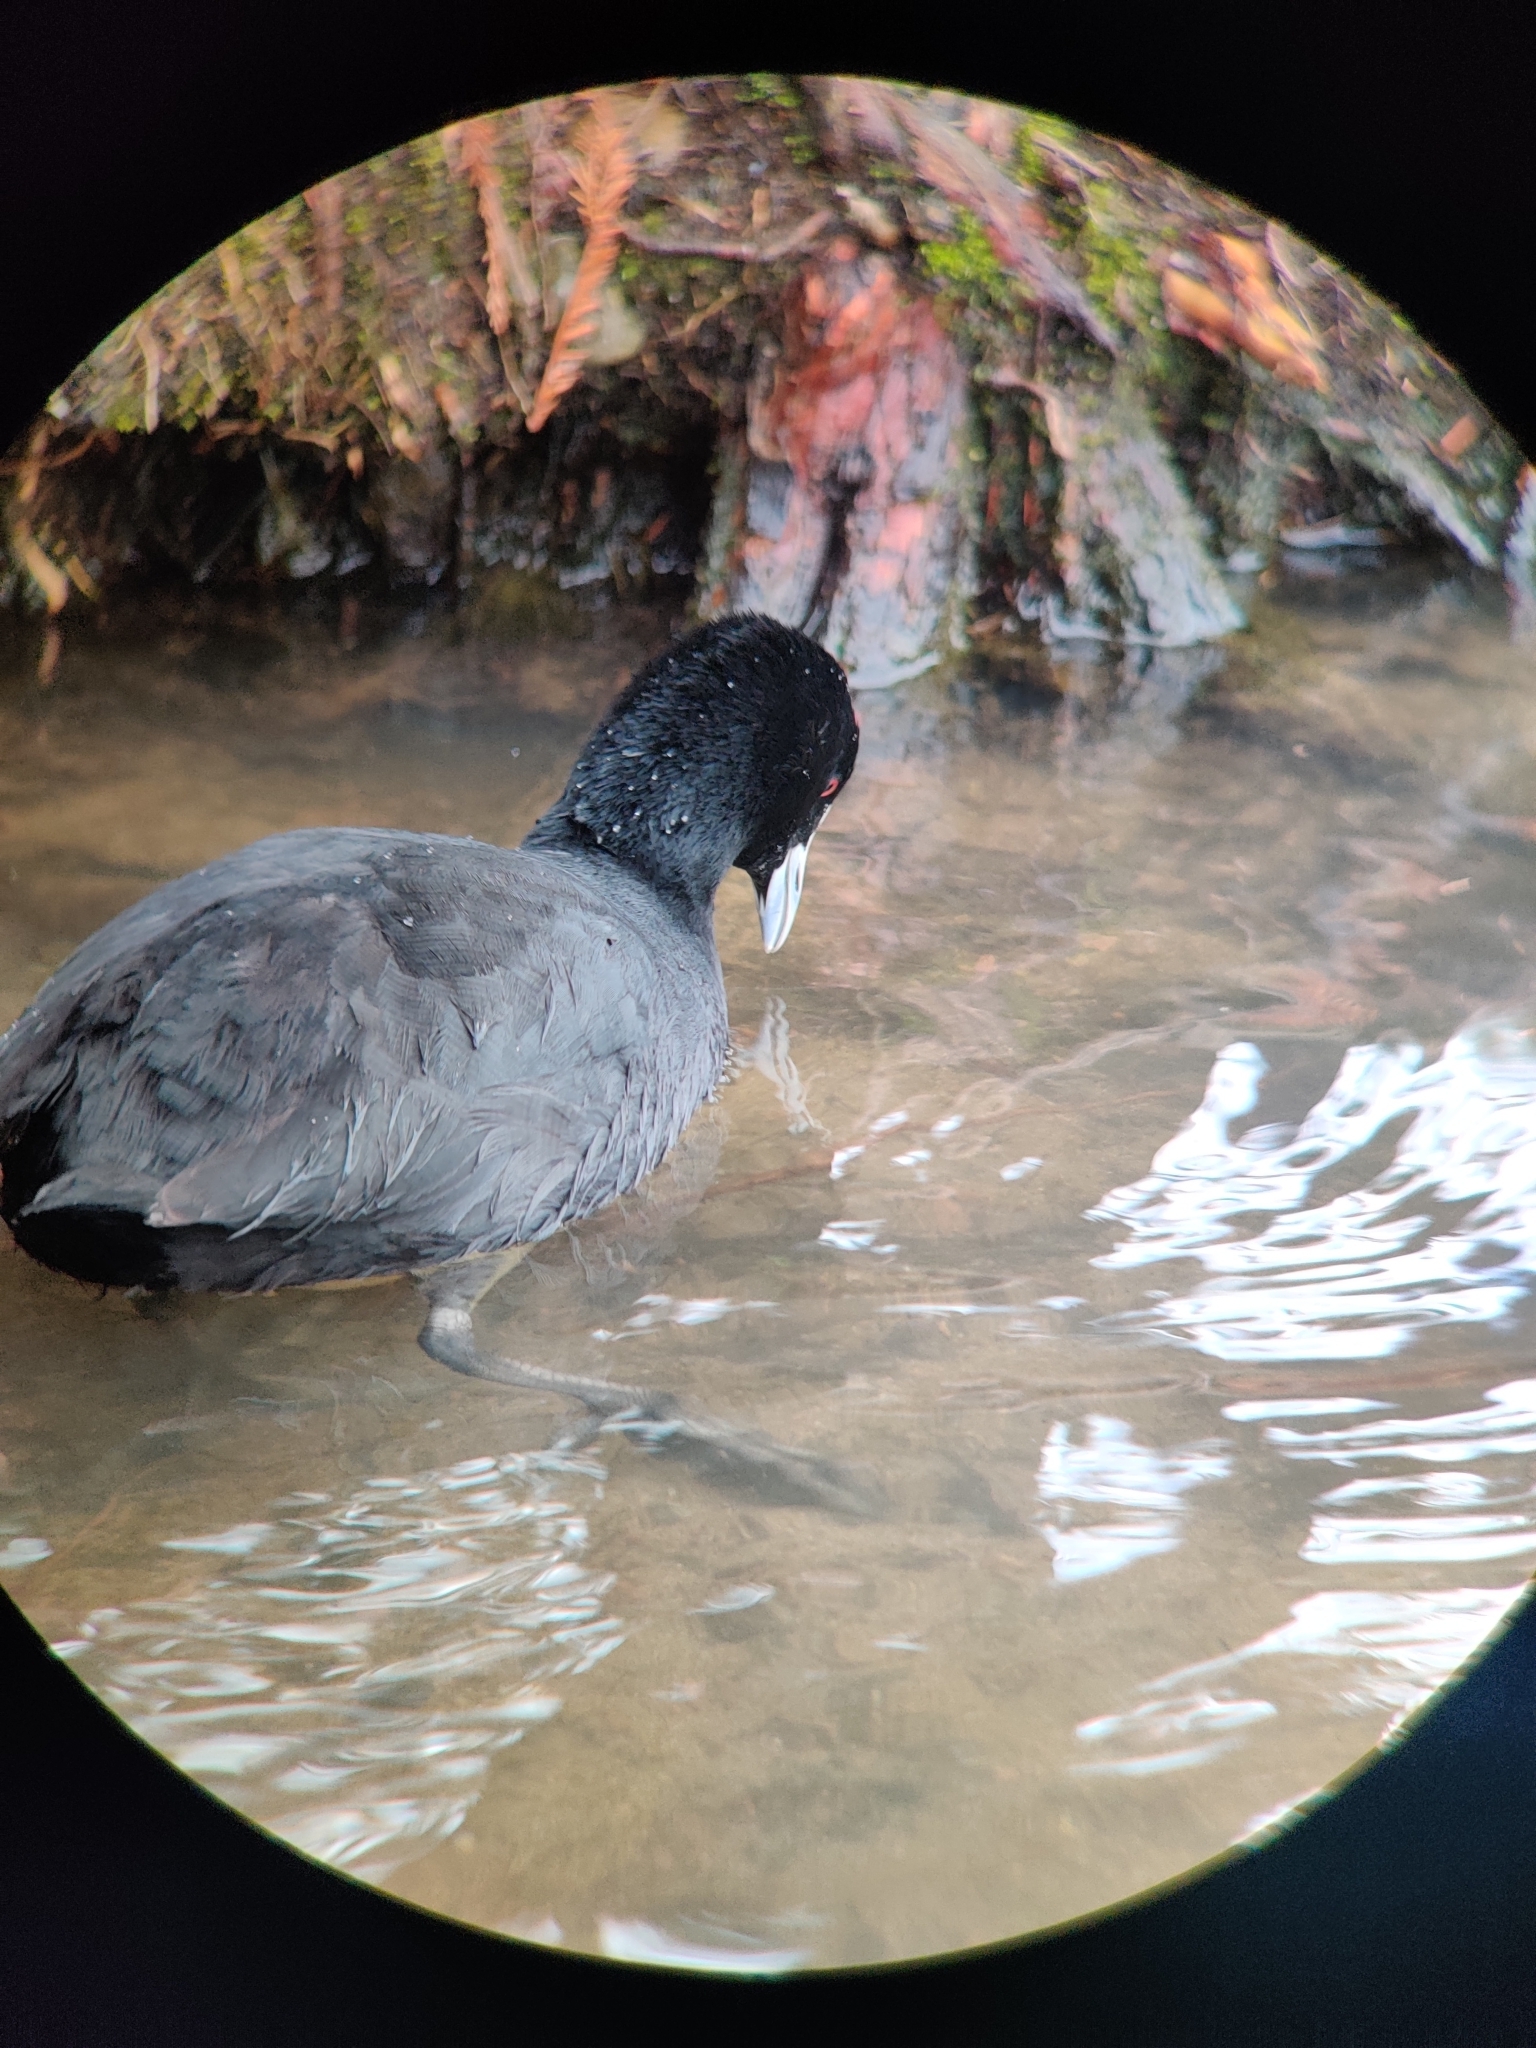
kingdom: Animalia
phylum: Chordata
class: Aves
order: Gruiformes
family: Rallidae
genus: Fulica
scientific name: Fulica atra
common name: Eurasian coot
